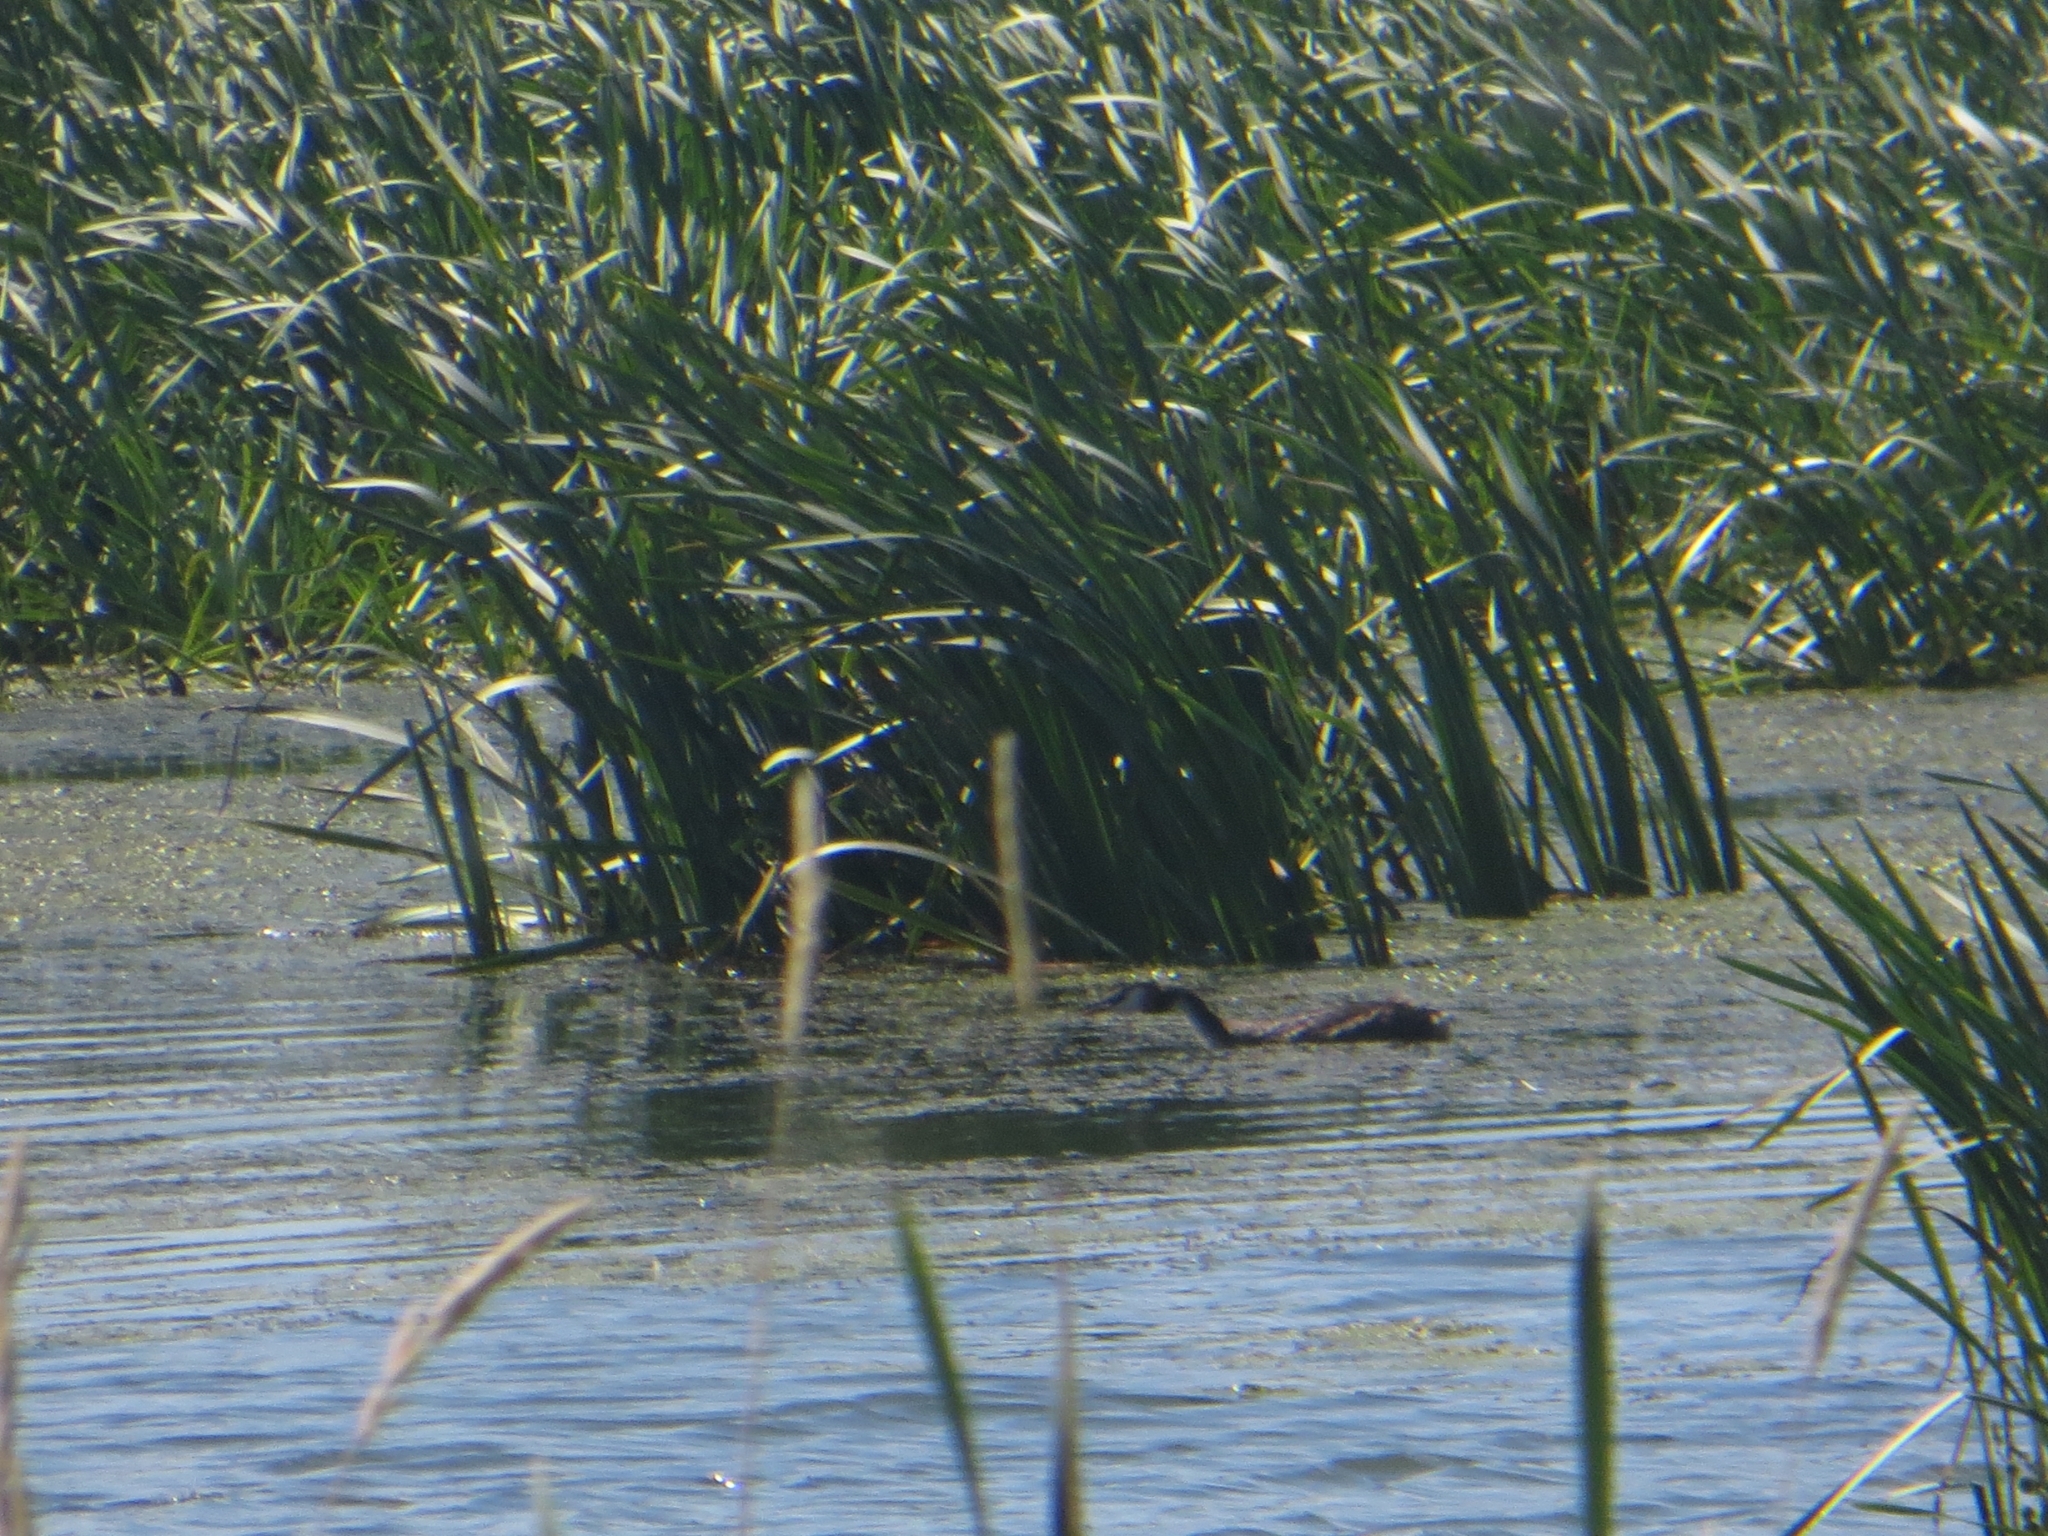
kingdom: Animalia
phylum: Chordata
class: Aves
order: Podicipediformes
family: Podicipedidae
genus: Podiceps
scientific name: Podiceps cristatus
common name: Great crested grebe
